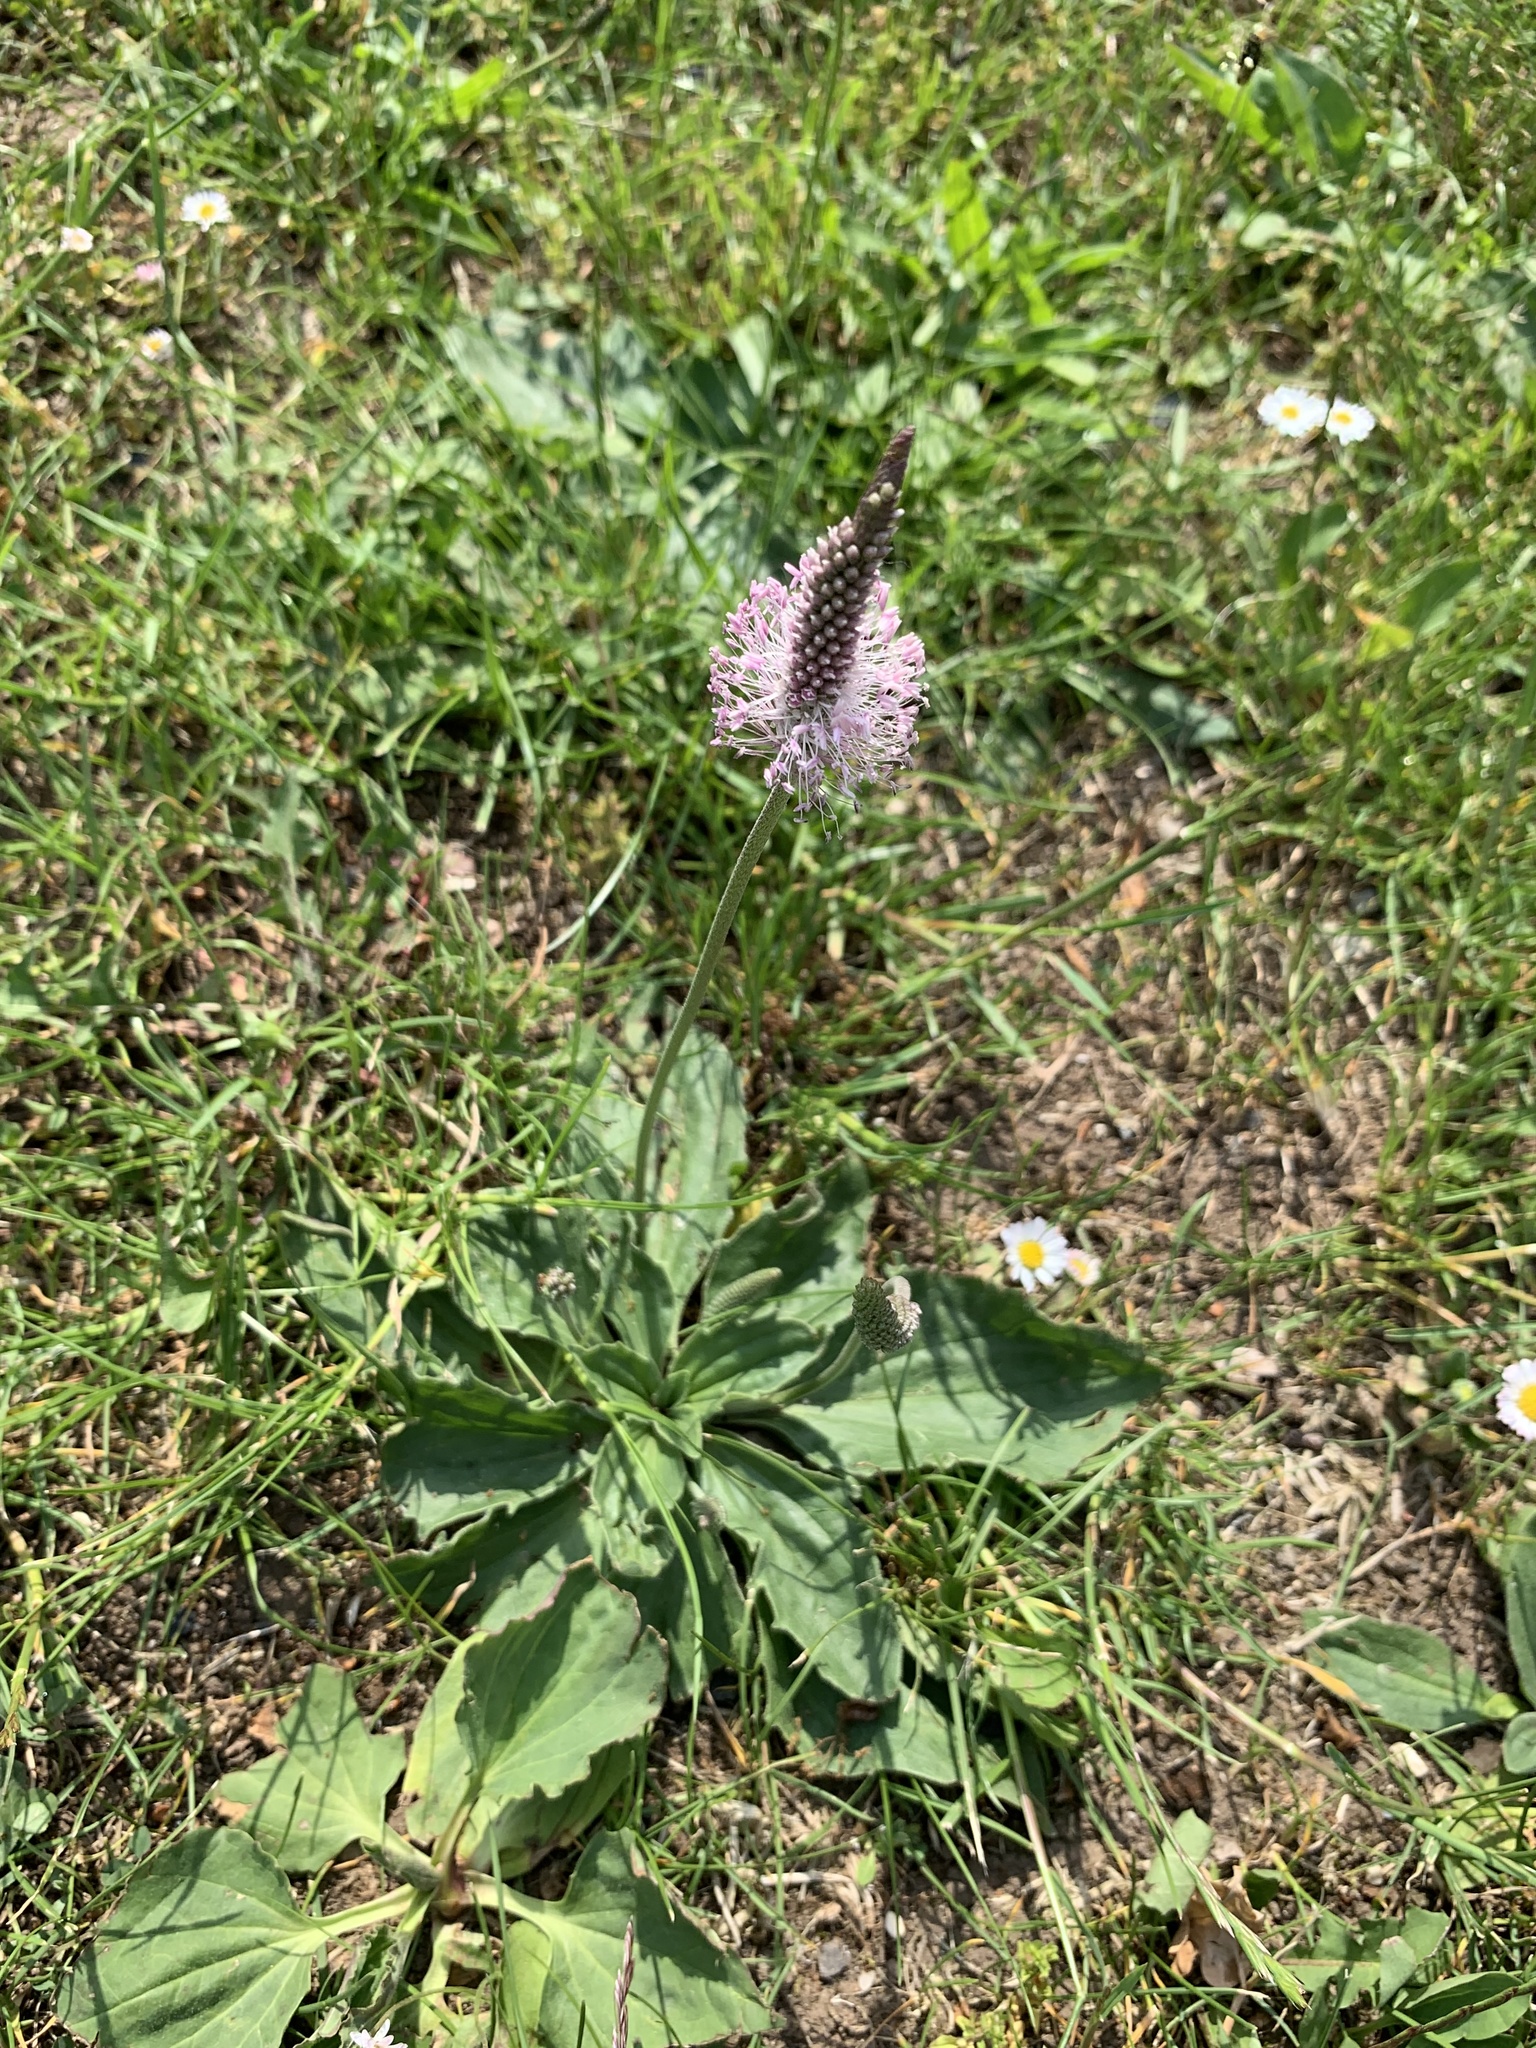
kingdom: Plantae
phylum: Tracheophyta
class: Magnoliopsida
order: Lamiales
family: Plantaginaceae
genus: Plantago
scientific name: Plantago media
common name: Hoary plantain
